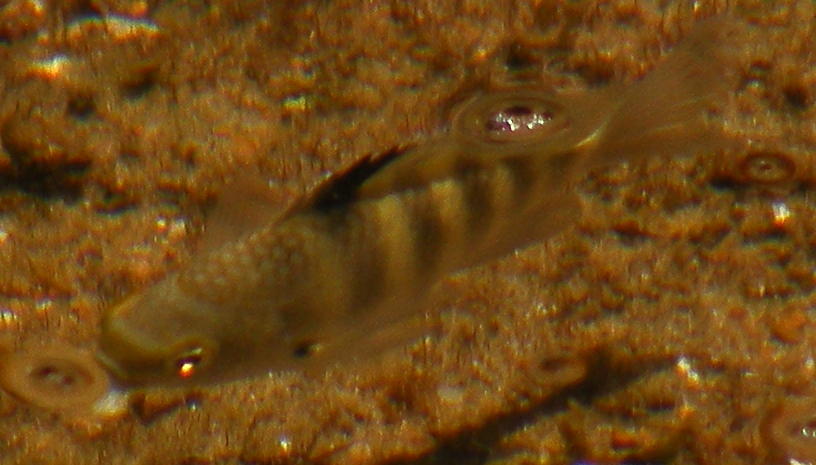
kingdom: Animalia
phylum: Chordata
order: Perciformes
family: Pomacentridae
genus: Abudefduf
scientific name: Abudefduf septemfasciatus
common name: Banded sergeant
